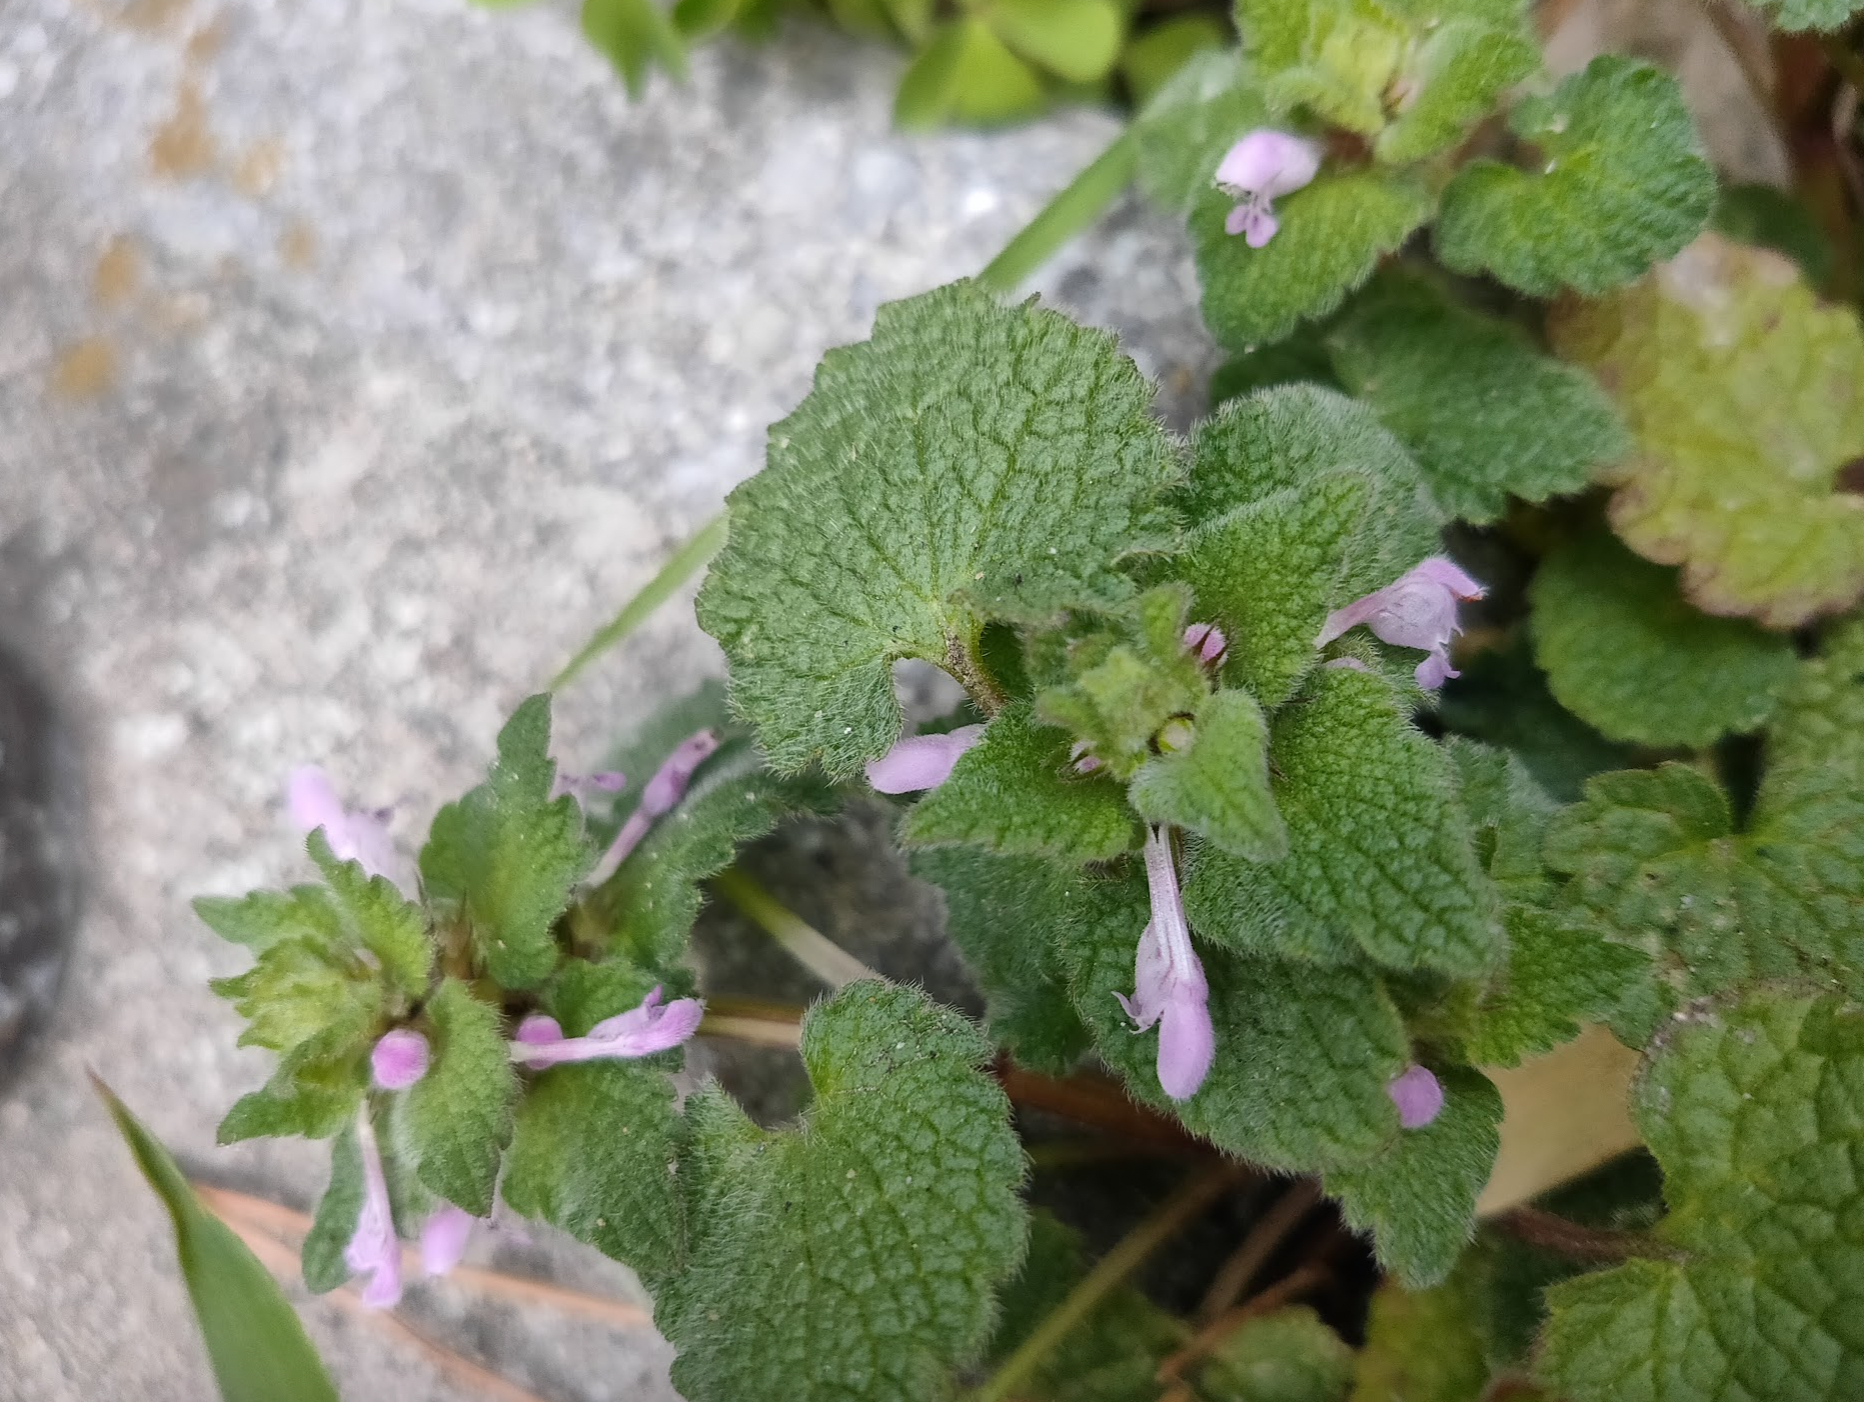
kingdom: Plantae
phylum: Tracheophyta
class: Magnoliopsida
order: Lamiales
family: Lamiaceae
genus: Lamium
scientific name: Lamium purpureum
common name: Red dead-nettle
